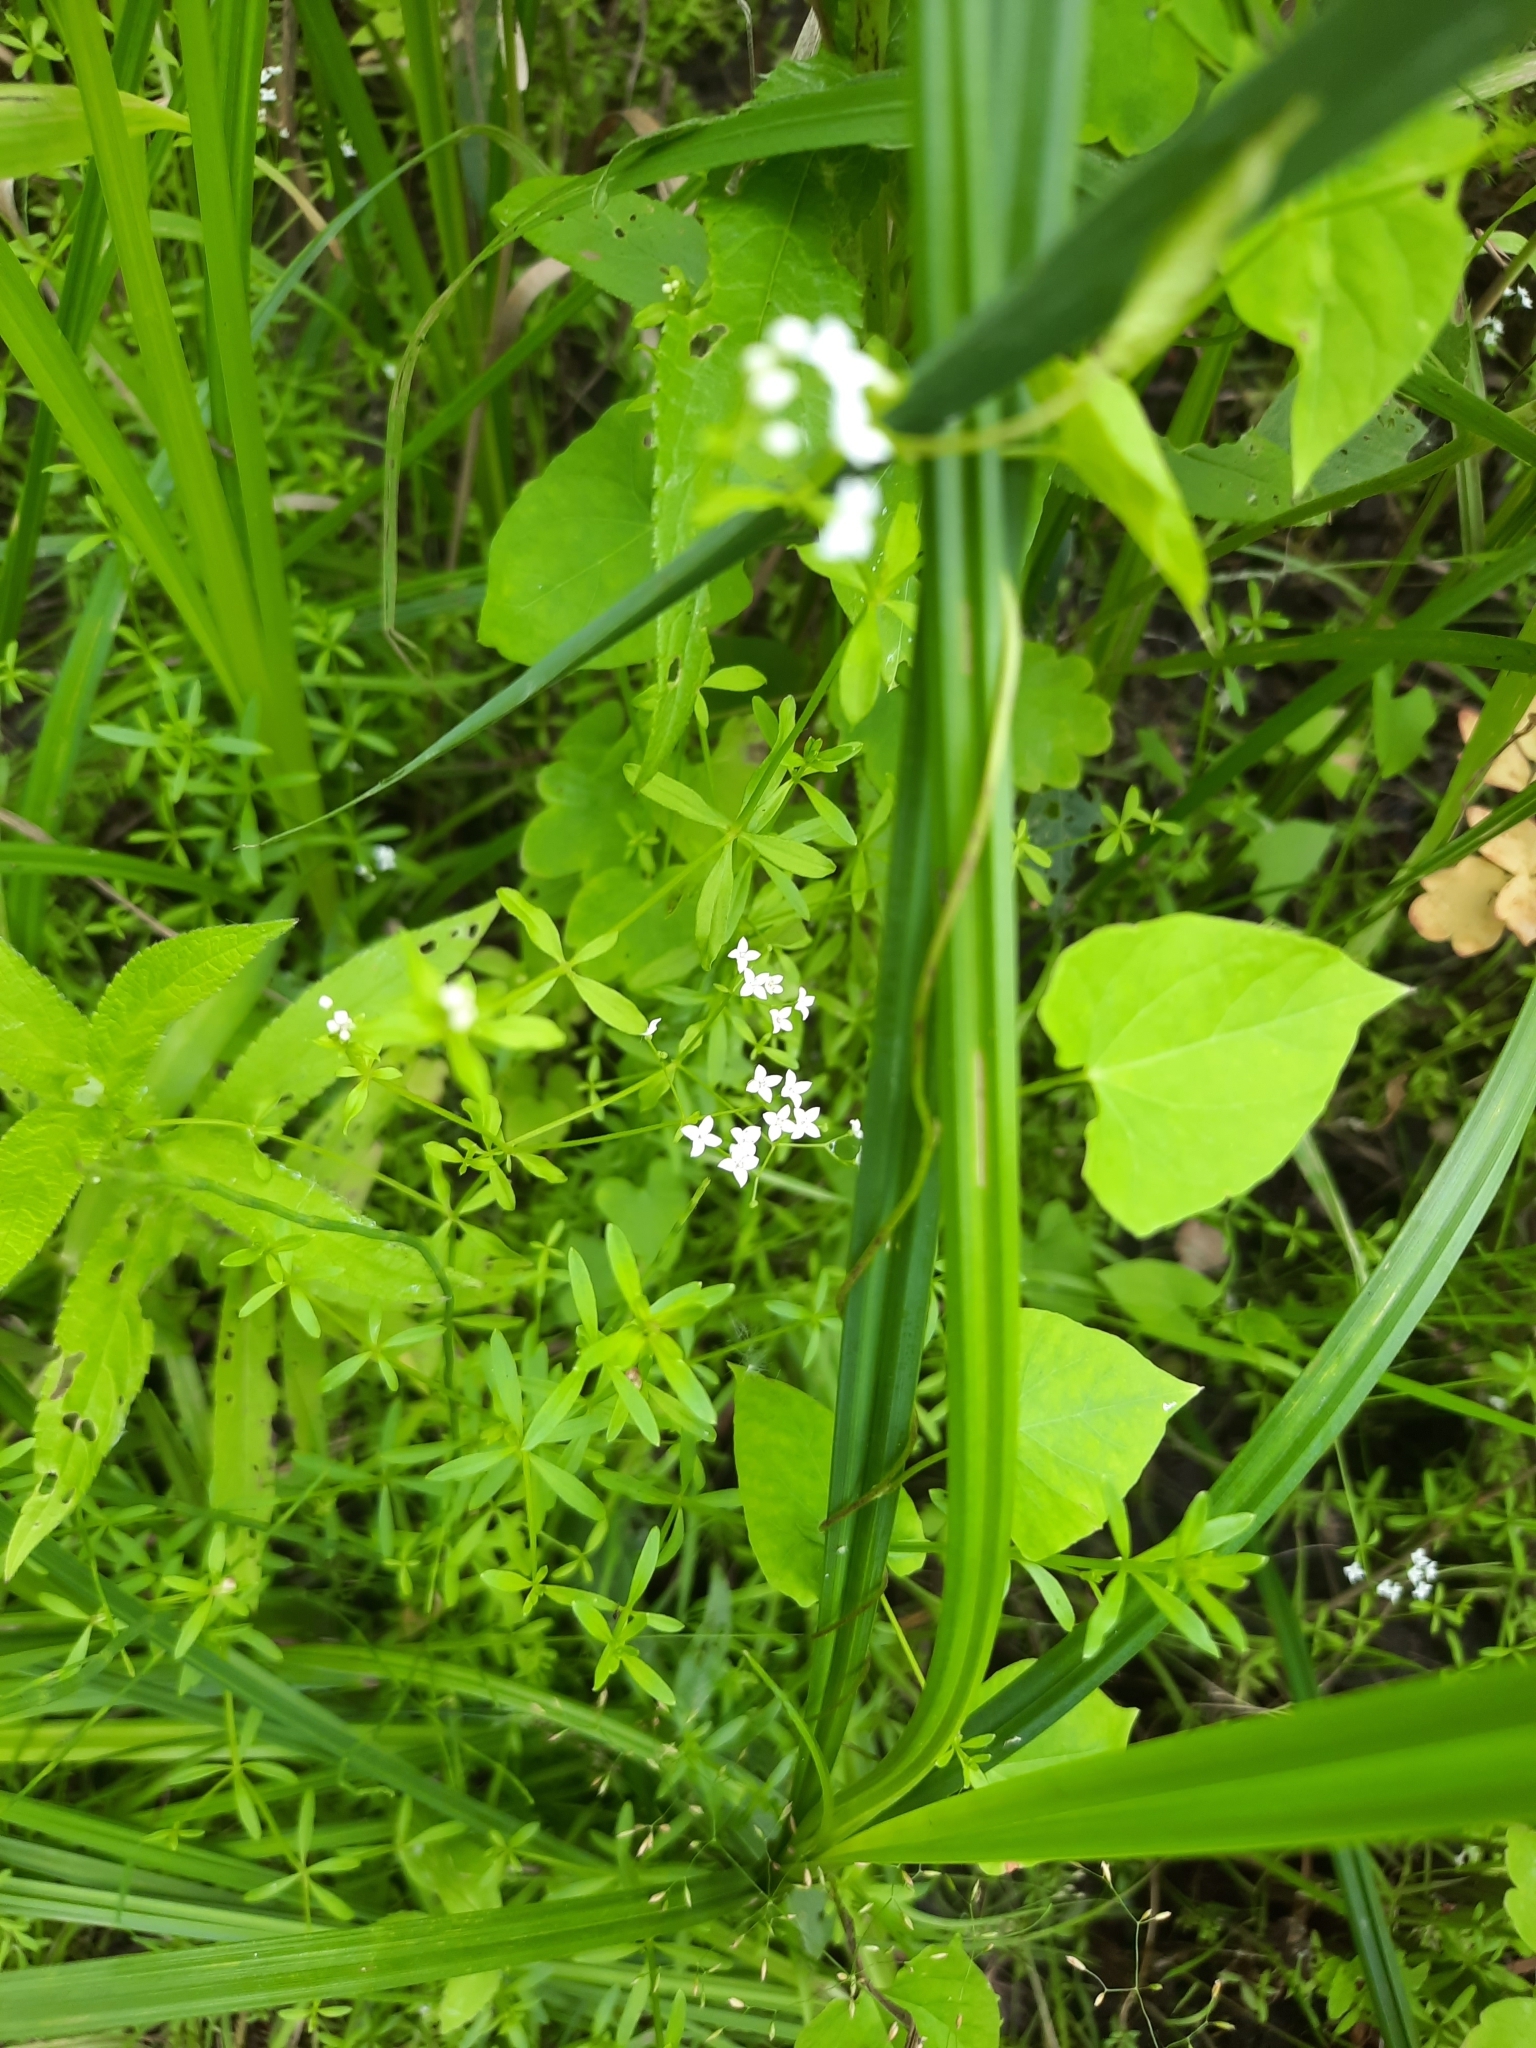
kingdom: Plantae
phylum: Tracheophyta
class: Magnoliopsida
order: Gentianales
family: Rubiaceae
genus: Galium
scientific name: Galium palustre
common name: Common marsh-bedstraw
